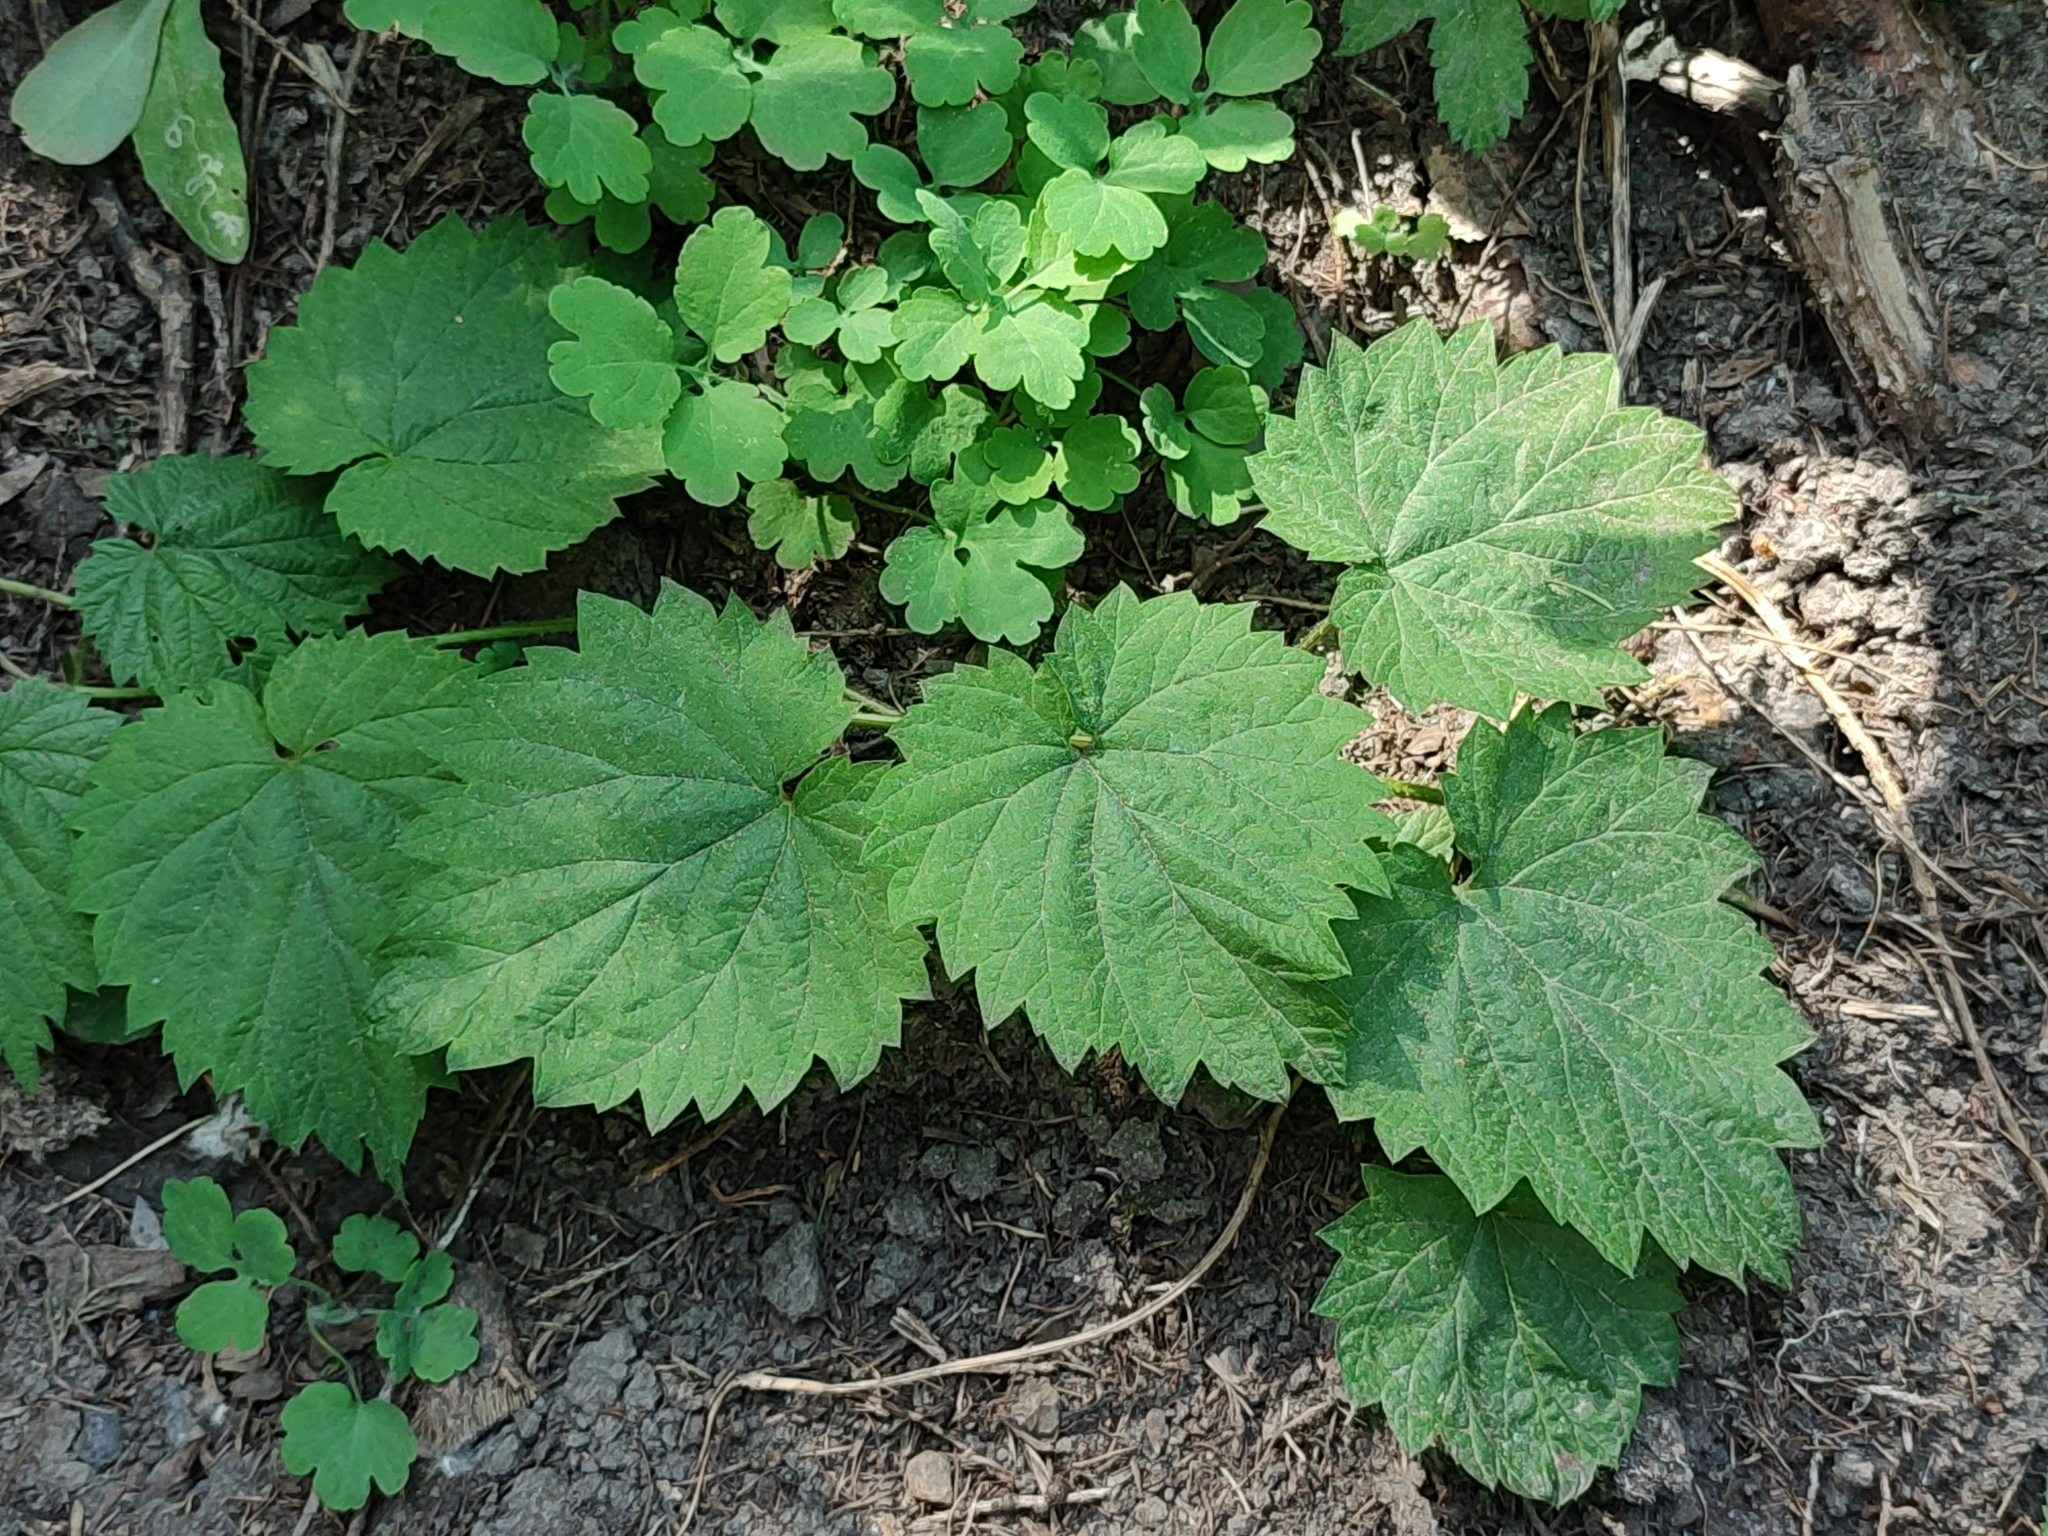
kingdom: Plantae
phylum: Tracheophyta
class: Magnoliopsida
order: Rosales
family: Cannabaceae
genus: Humulus
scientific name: Humulus lupulus
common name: Hop
